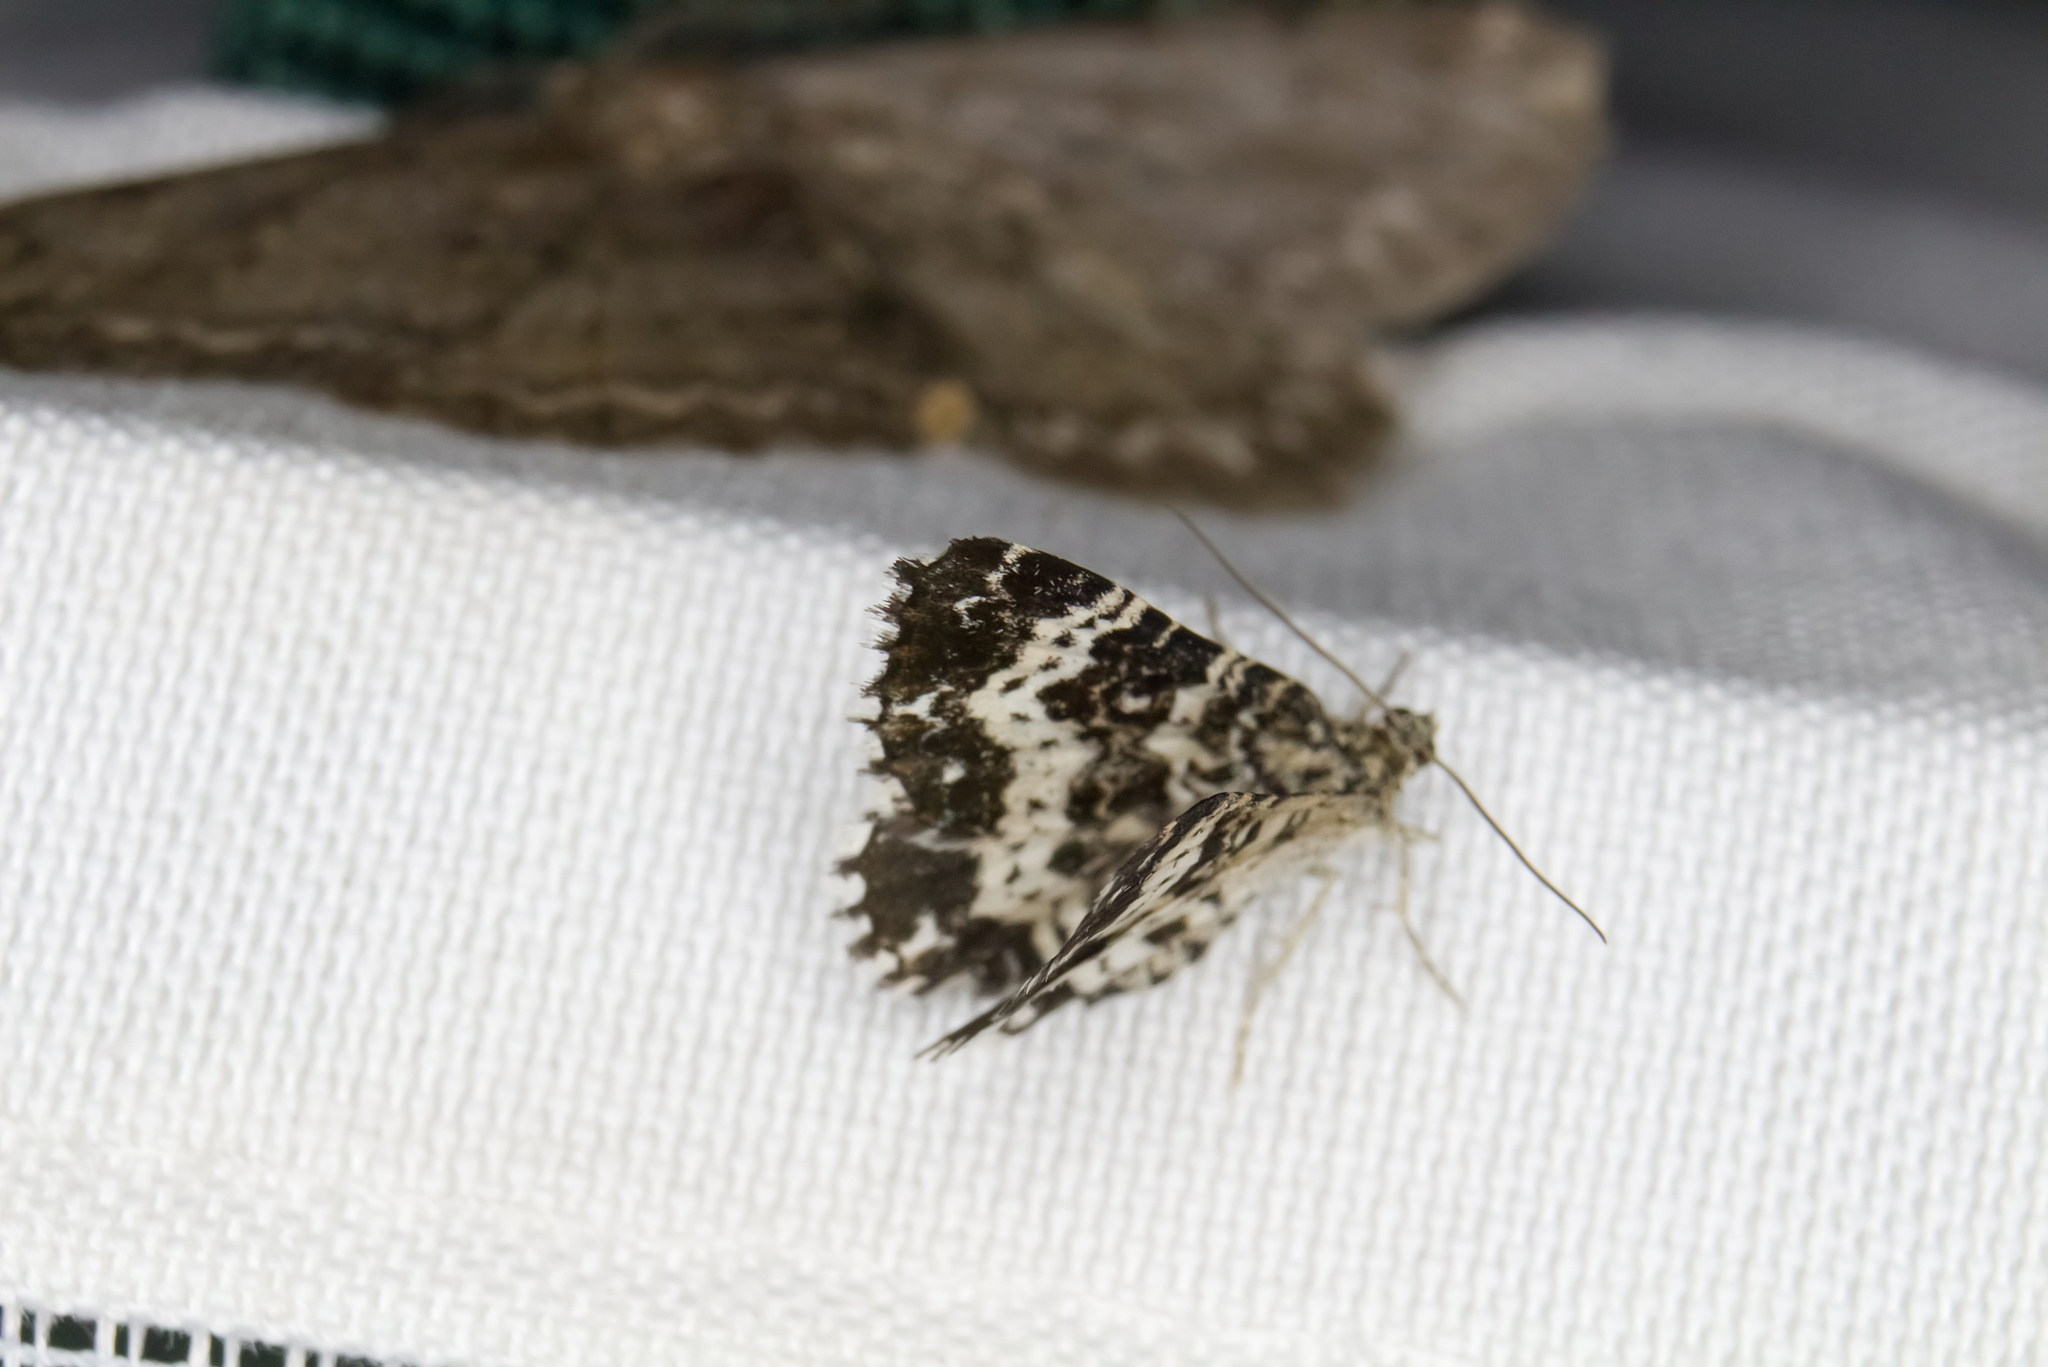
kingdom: Animalia
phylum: Arthropoda
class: Insecta
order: Lepidoptera
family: Geometridae
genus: Epirrhoe
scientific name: Epirrhoe tristata
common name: Small argent & sable
